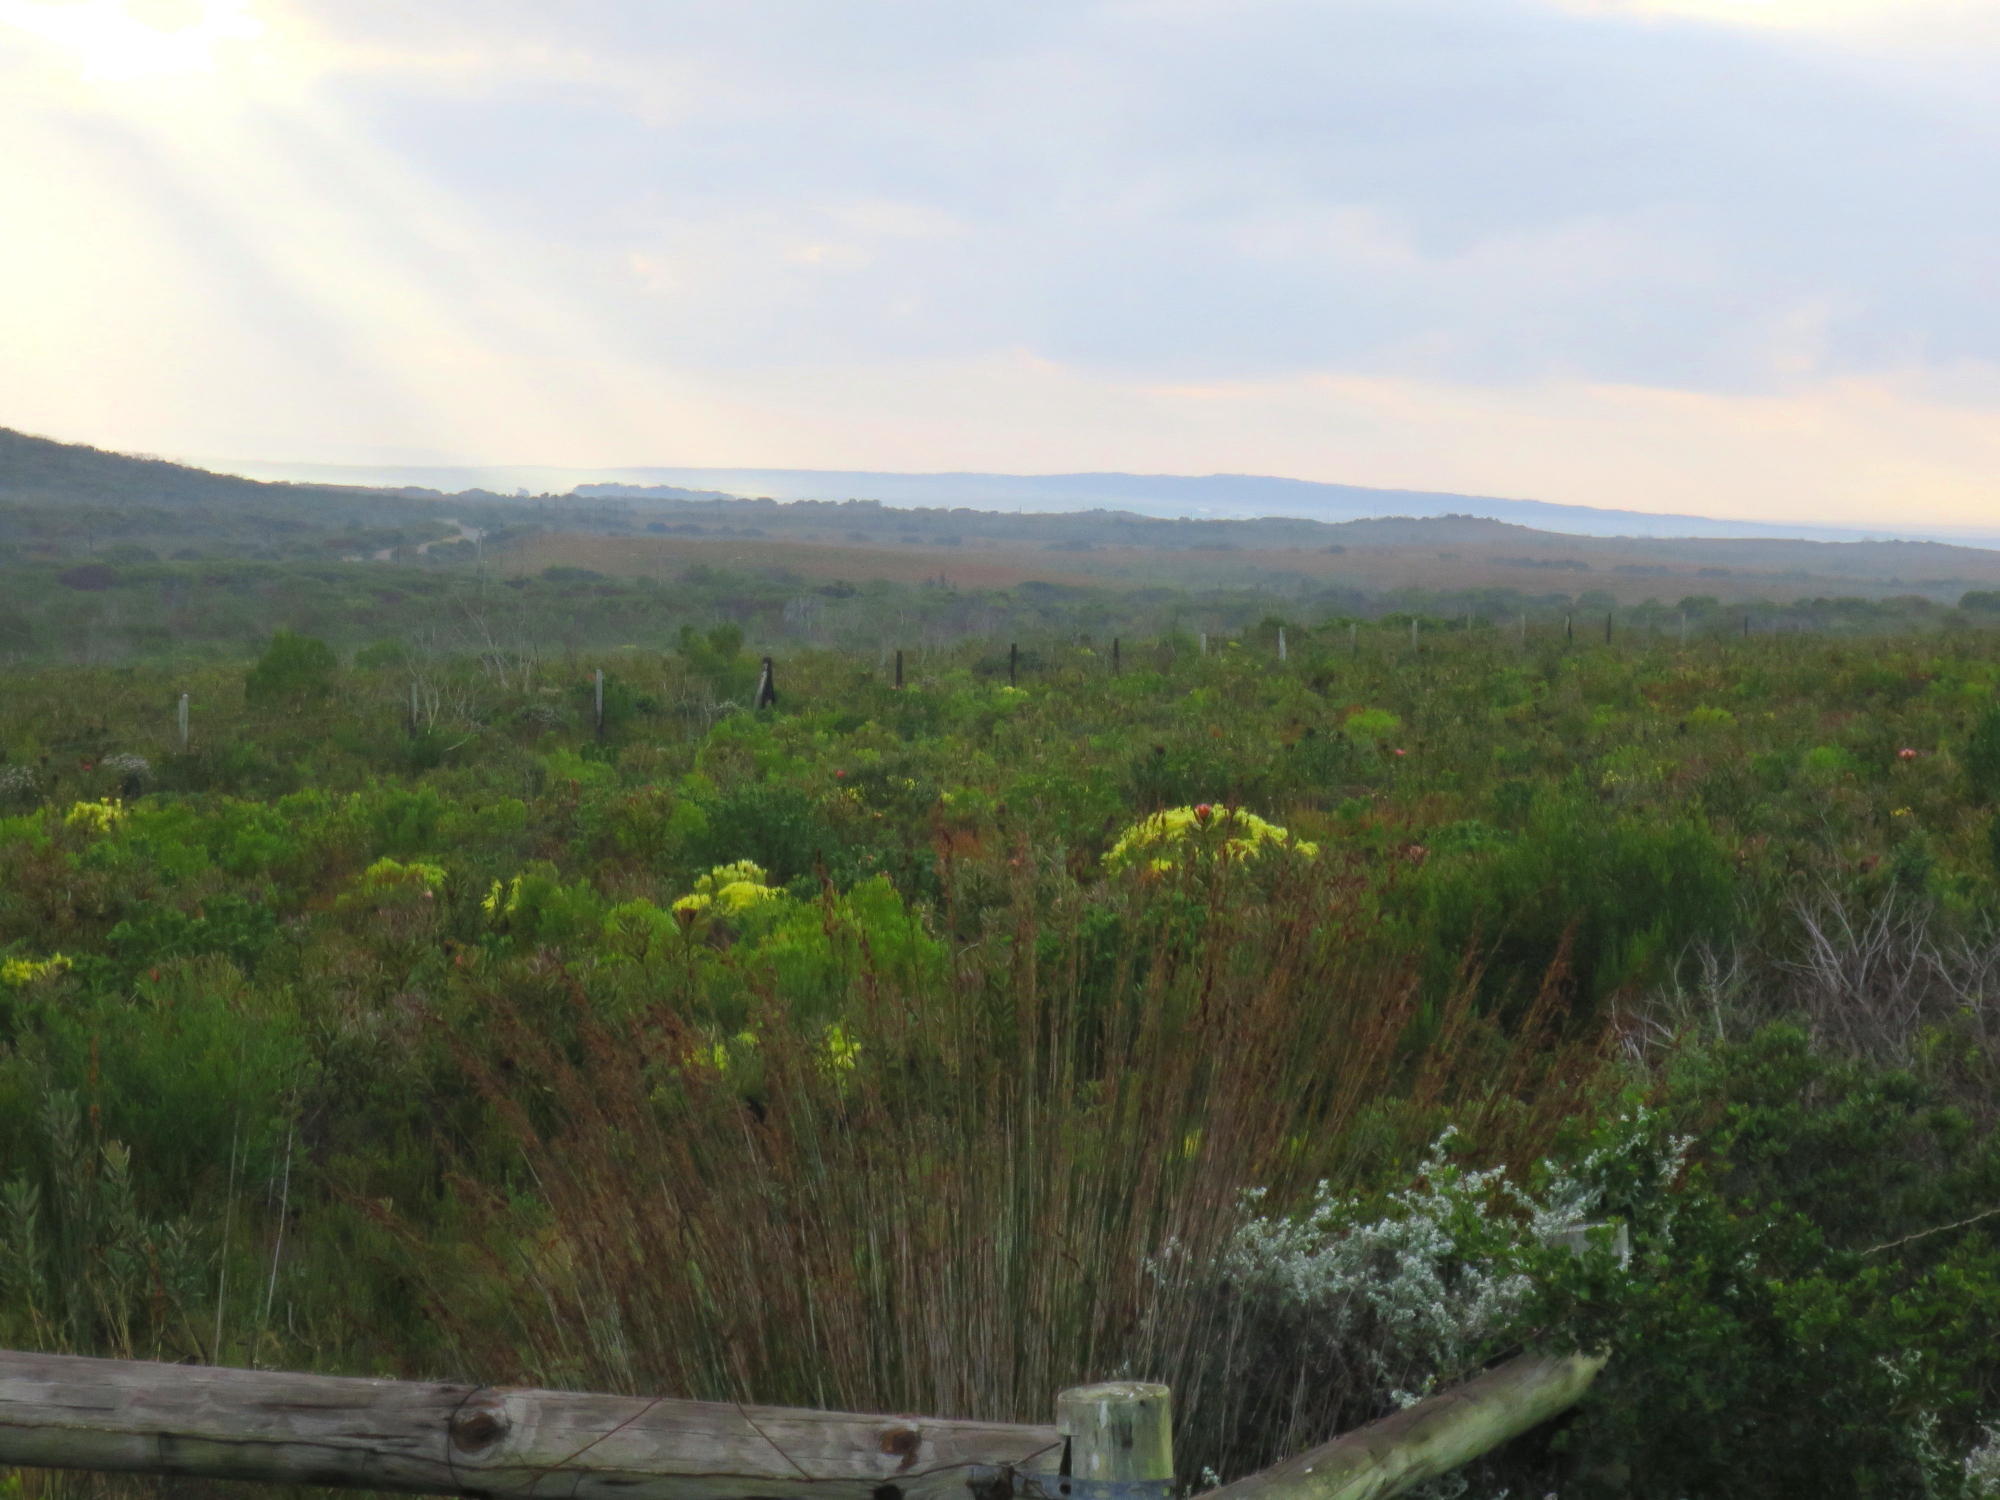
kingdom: Plantae
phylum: Tracheophyta
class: Magnoliopsida
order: Proteales
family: Proteaceae
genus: Leucadendron
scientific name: Leucadendron salignum
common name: Common sunshine conebush
